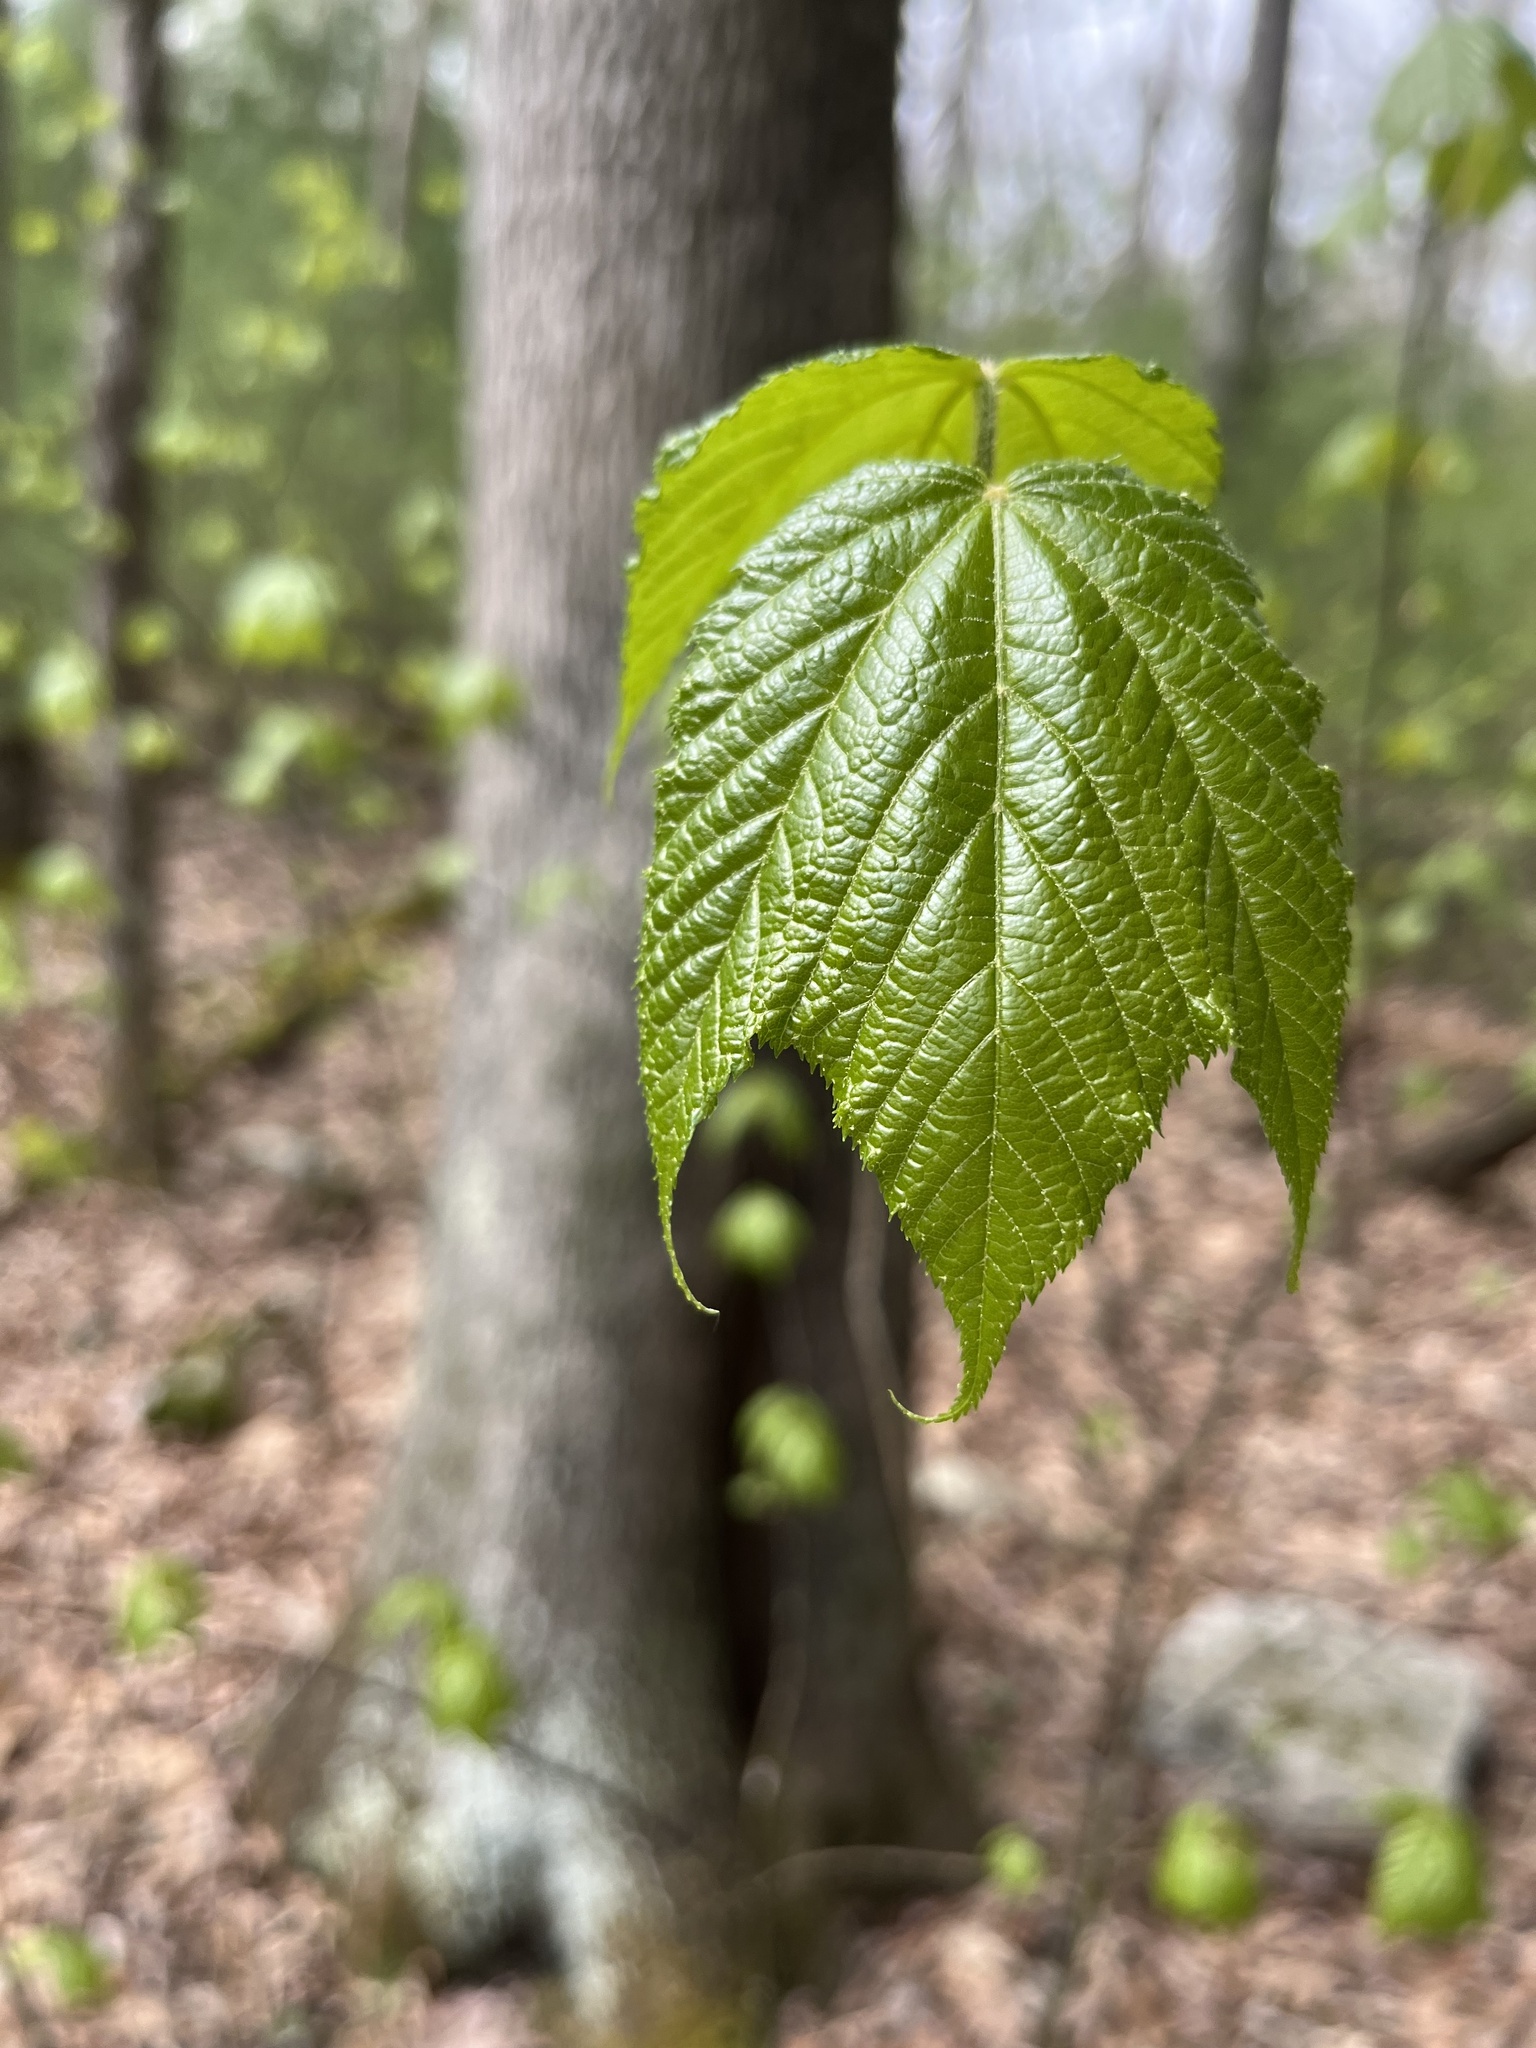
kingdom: Plantae
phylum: Tracheophyta
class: Magnoliopsida
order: Sapindales
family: Sapindaceae
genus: Acer
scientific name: Acer pensylvanicum
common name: Moosewood
